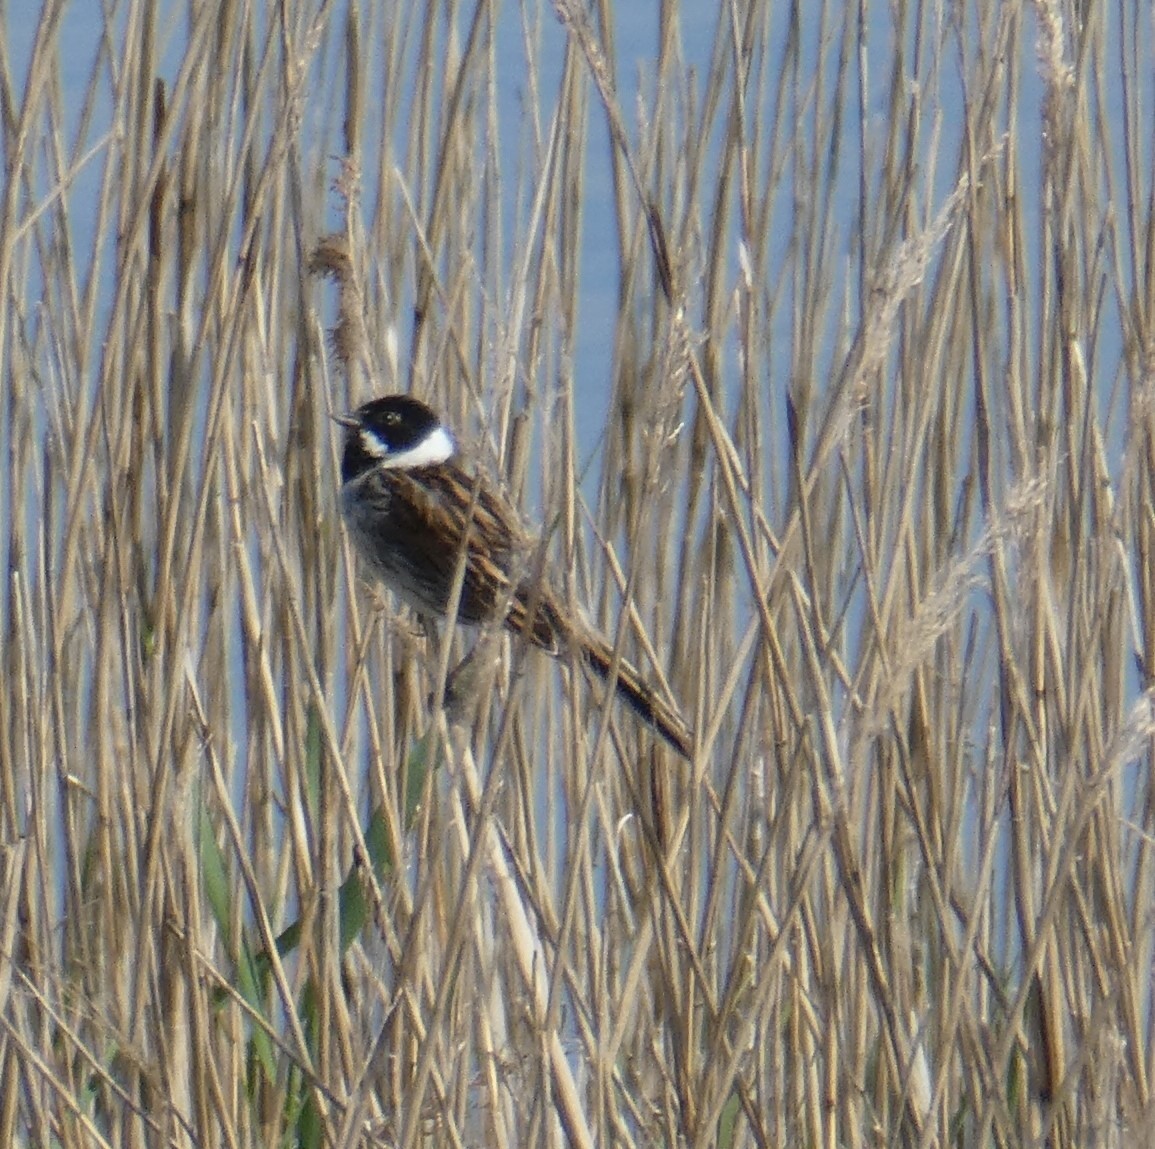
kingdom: Animalia
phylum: Chordata
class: Aves
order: Passeriformes
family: Emberizidae
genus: Emberiza
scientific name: Emberiza schoeniclus
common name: Reed bunting
